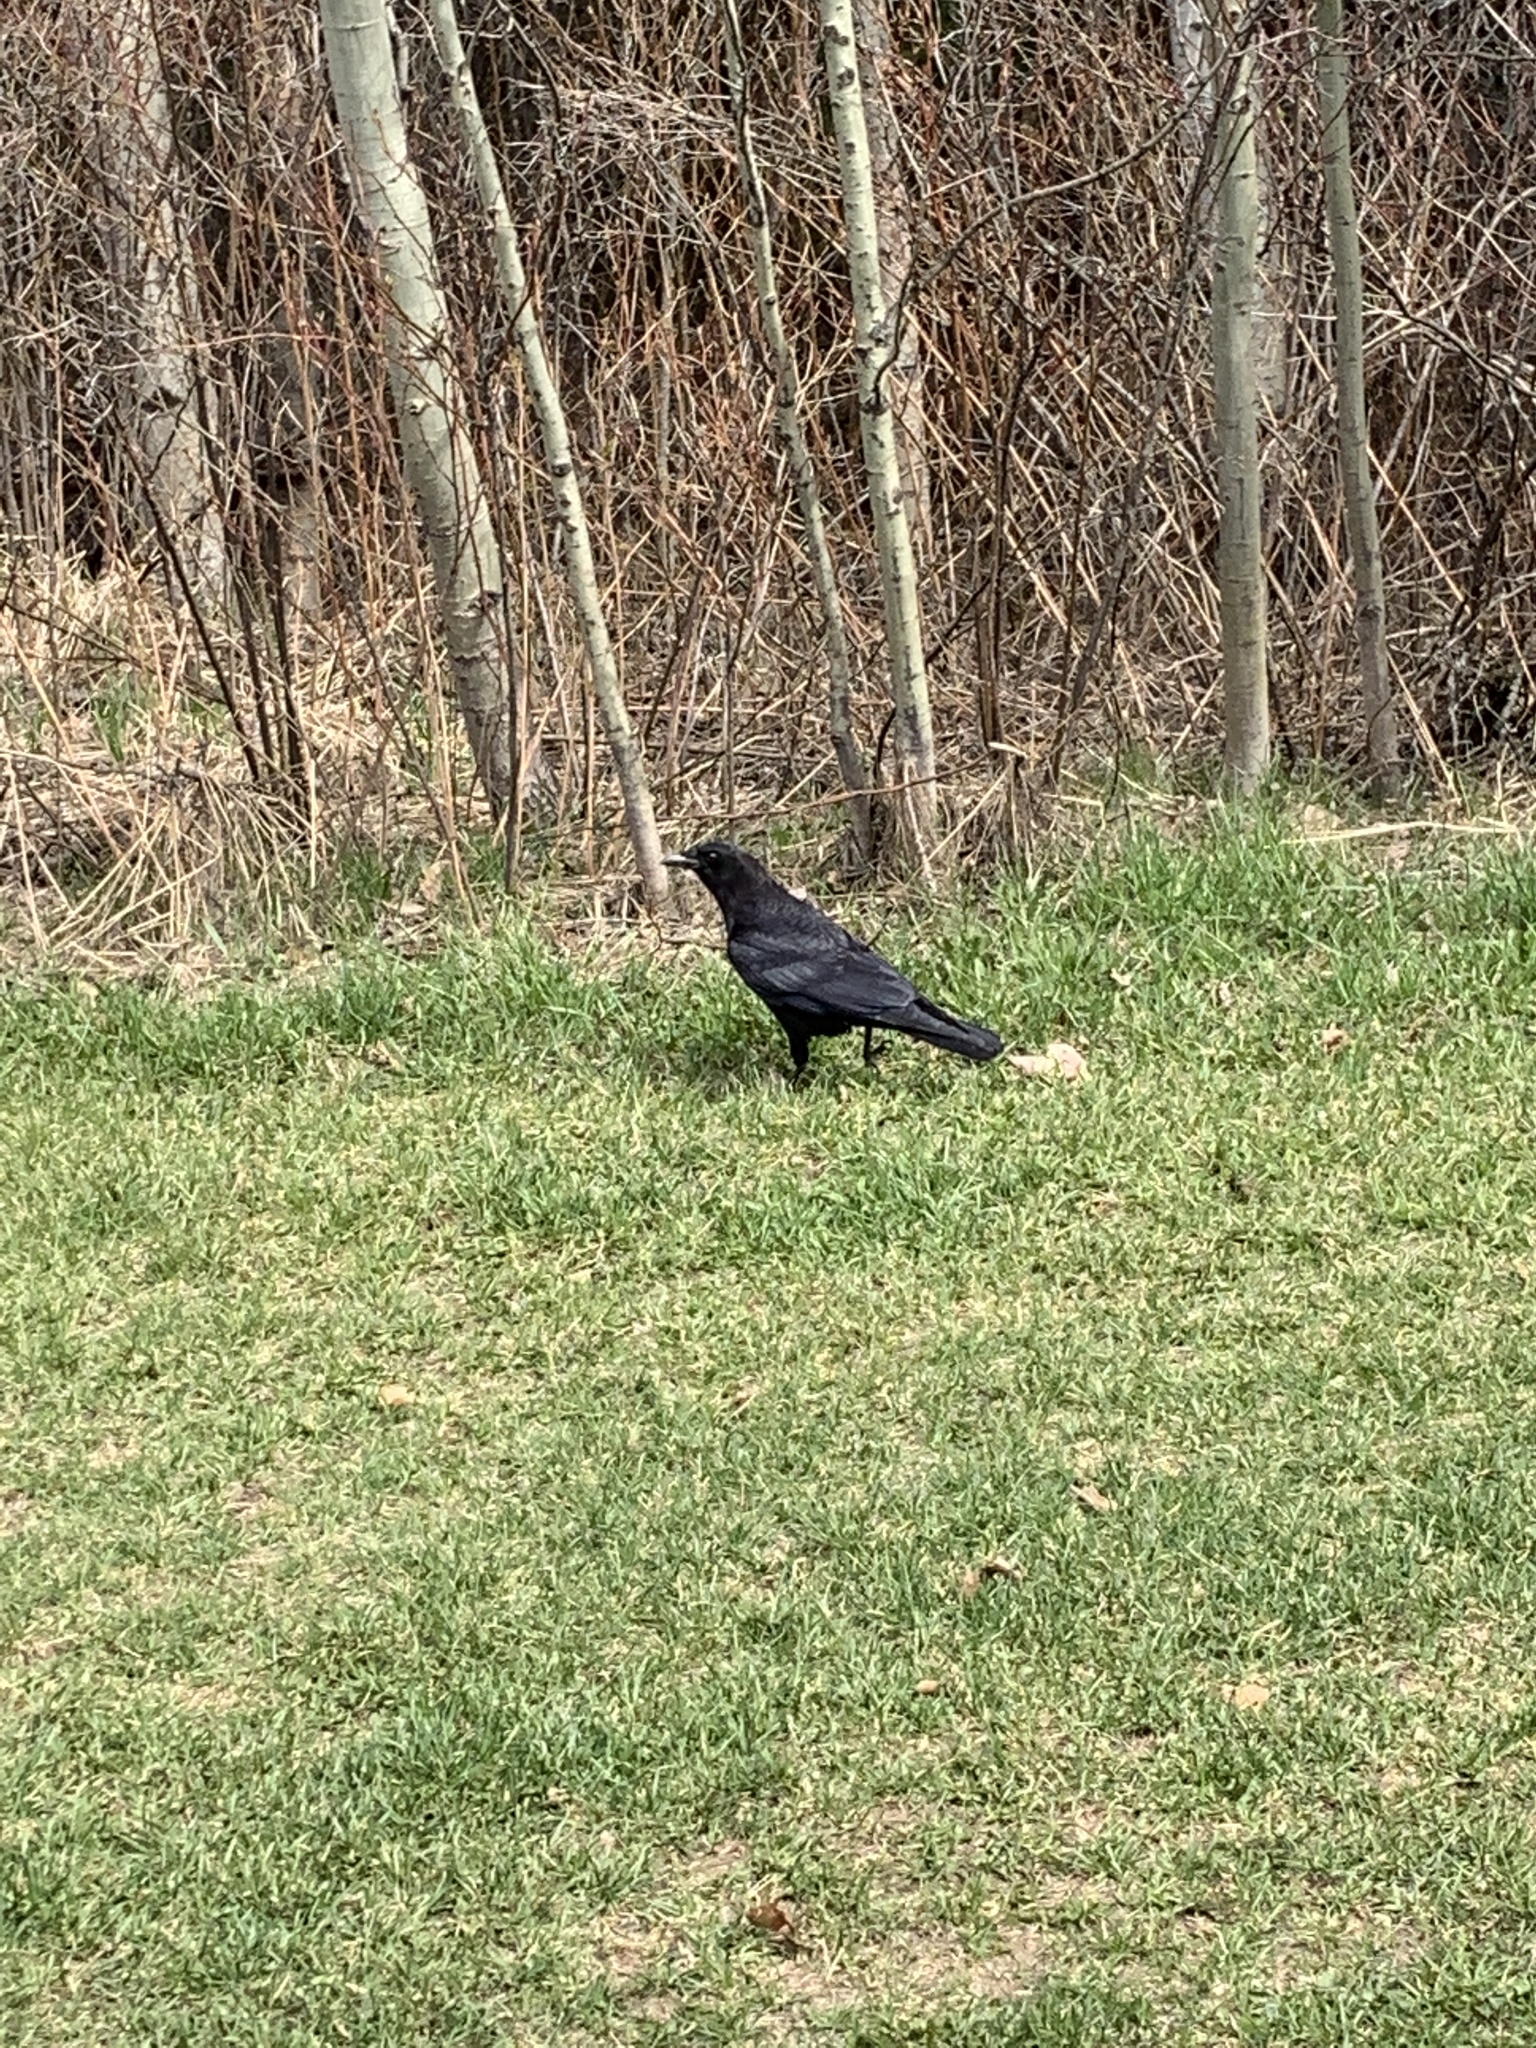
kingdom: Animalia
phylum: Chordata
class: Aves
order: Passeriformes
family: Corvidae
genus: Corvus
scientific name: Corvus brachyrhynchos
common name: American crow
